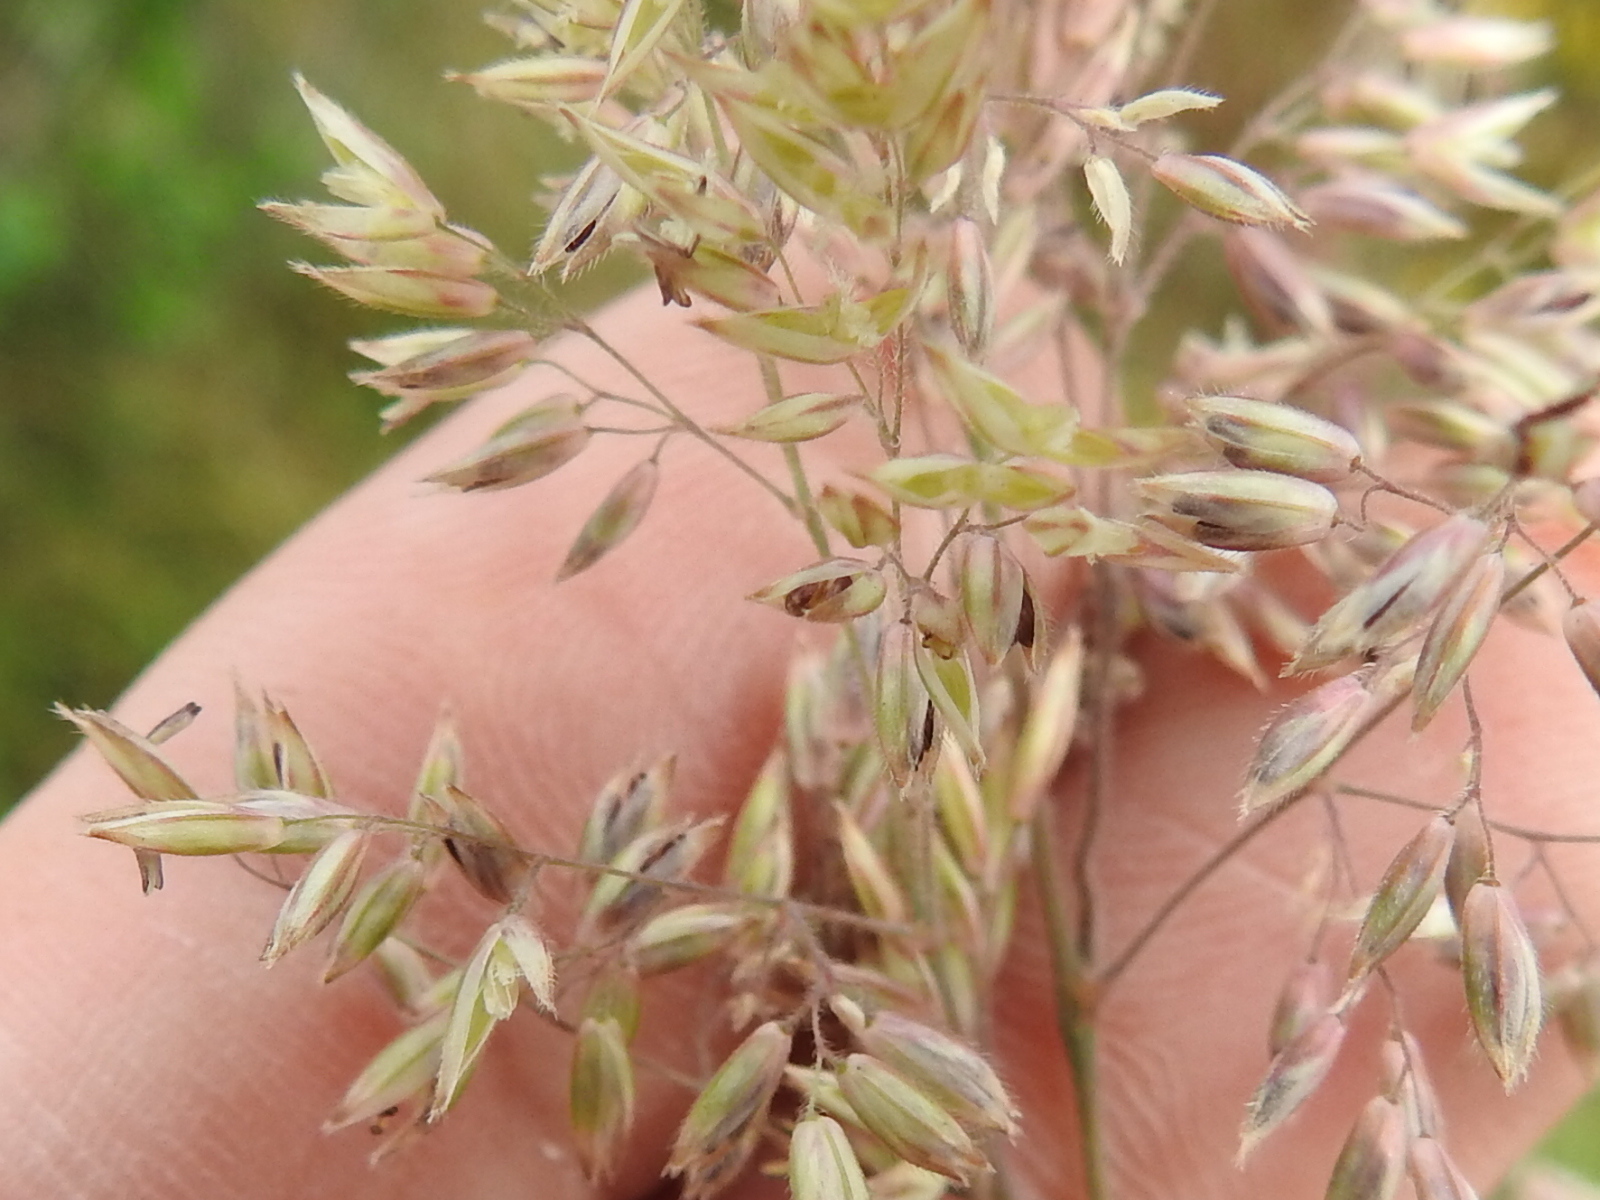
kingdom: Plantae
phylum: Tracheophyta
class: Liliopsida
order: Poales
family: Poaceae
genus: Holcus
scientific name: Holcus lanatus
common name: Yorkshire-fog
